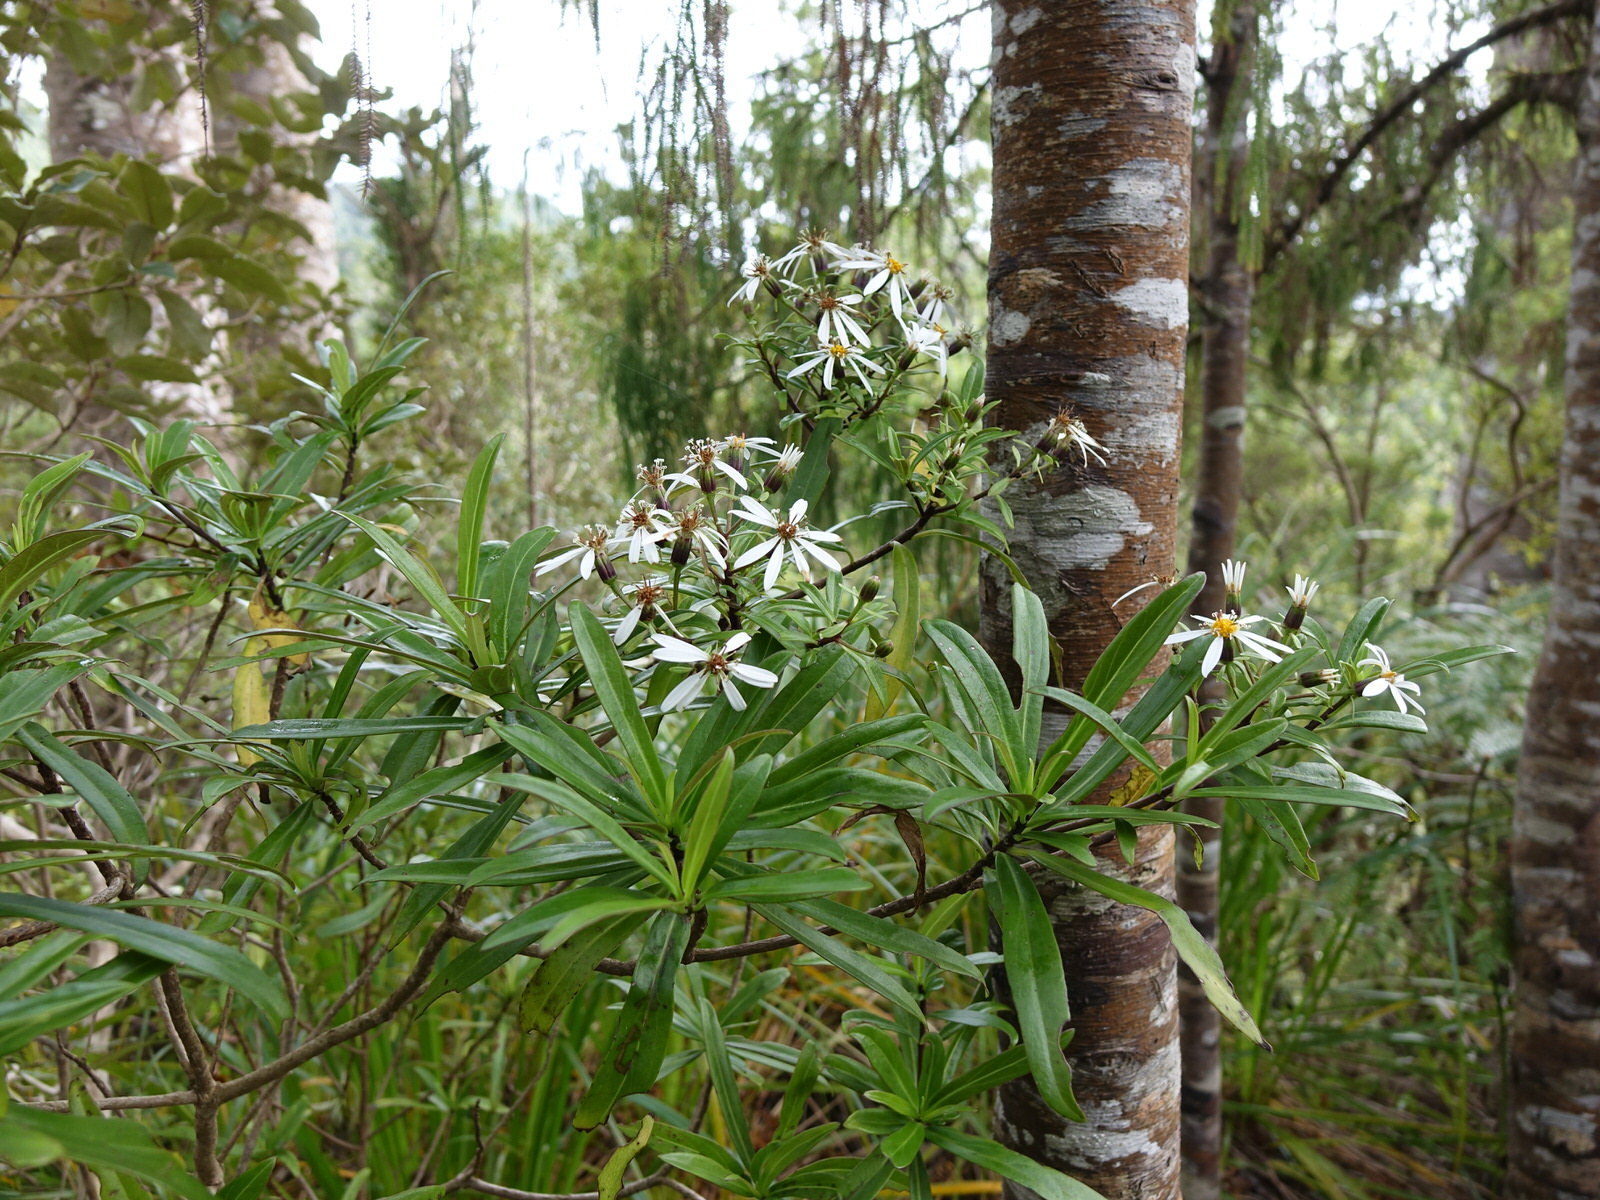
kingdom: Plantae
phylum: Tracheophyta
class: Magnoliopsida
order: Asterales
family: Asteraceae
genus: Brachyglottis
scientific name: Brachyglottis kirkii
